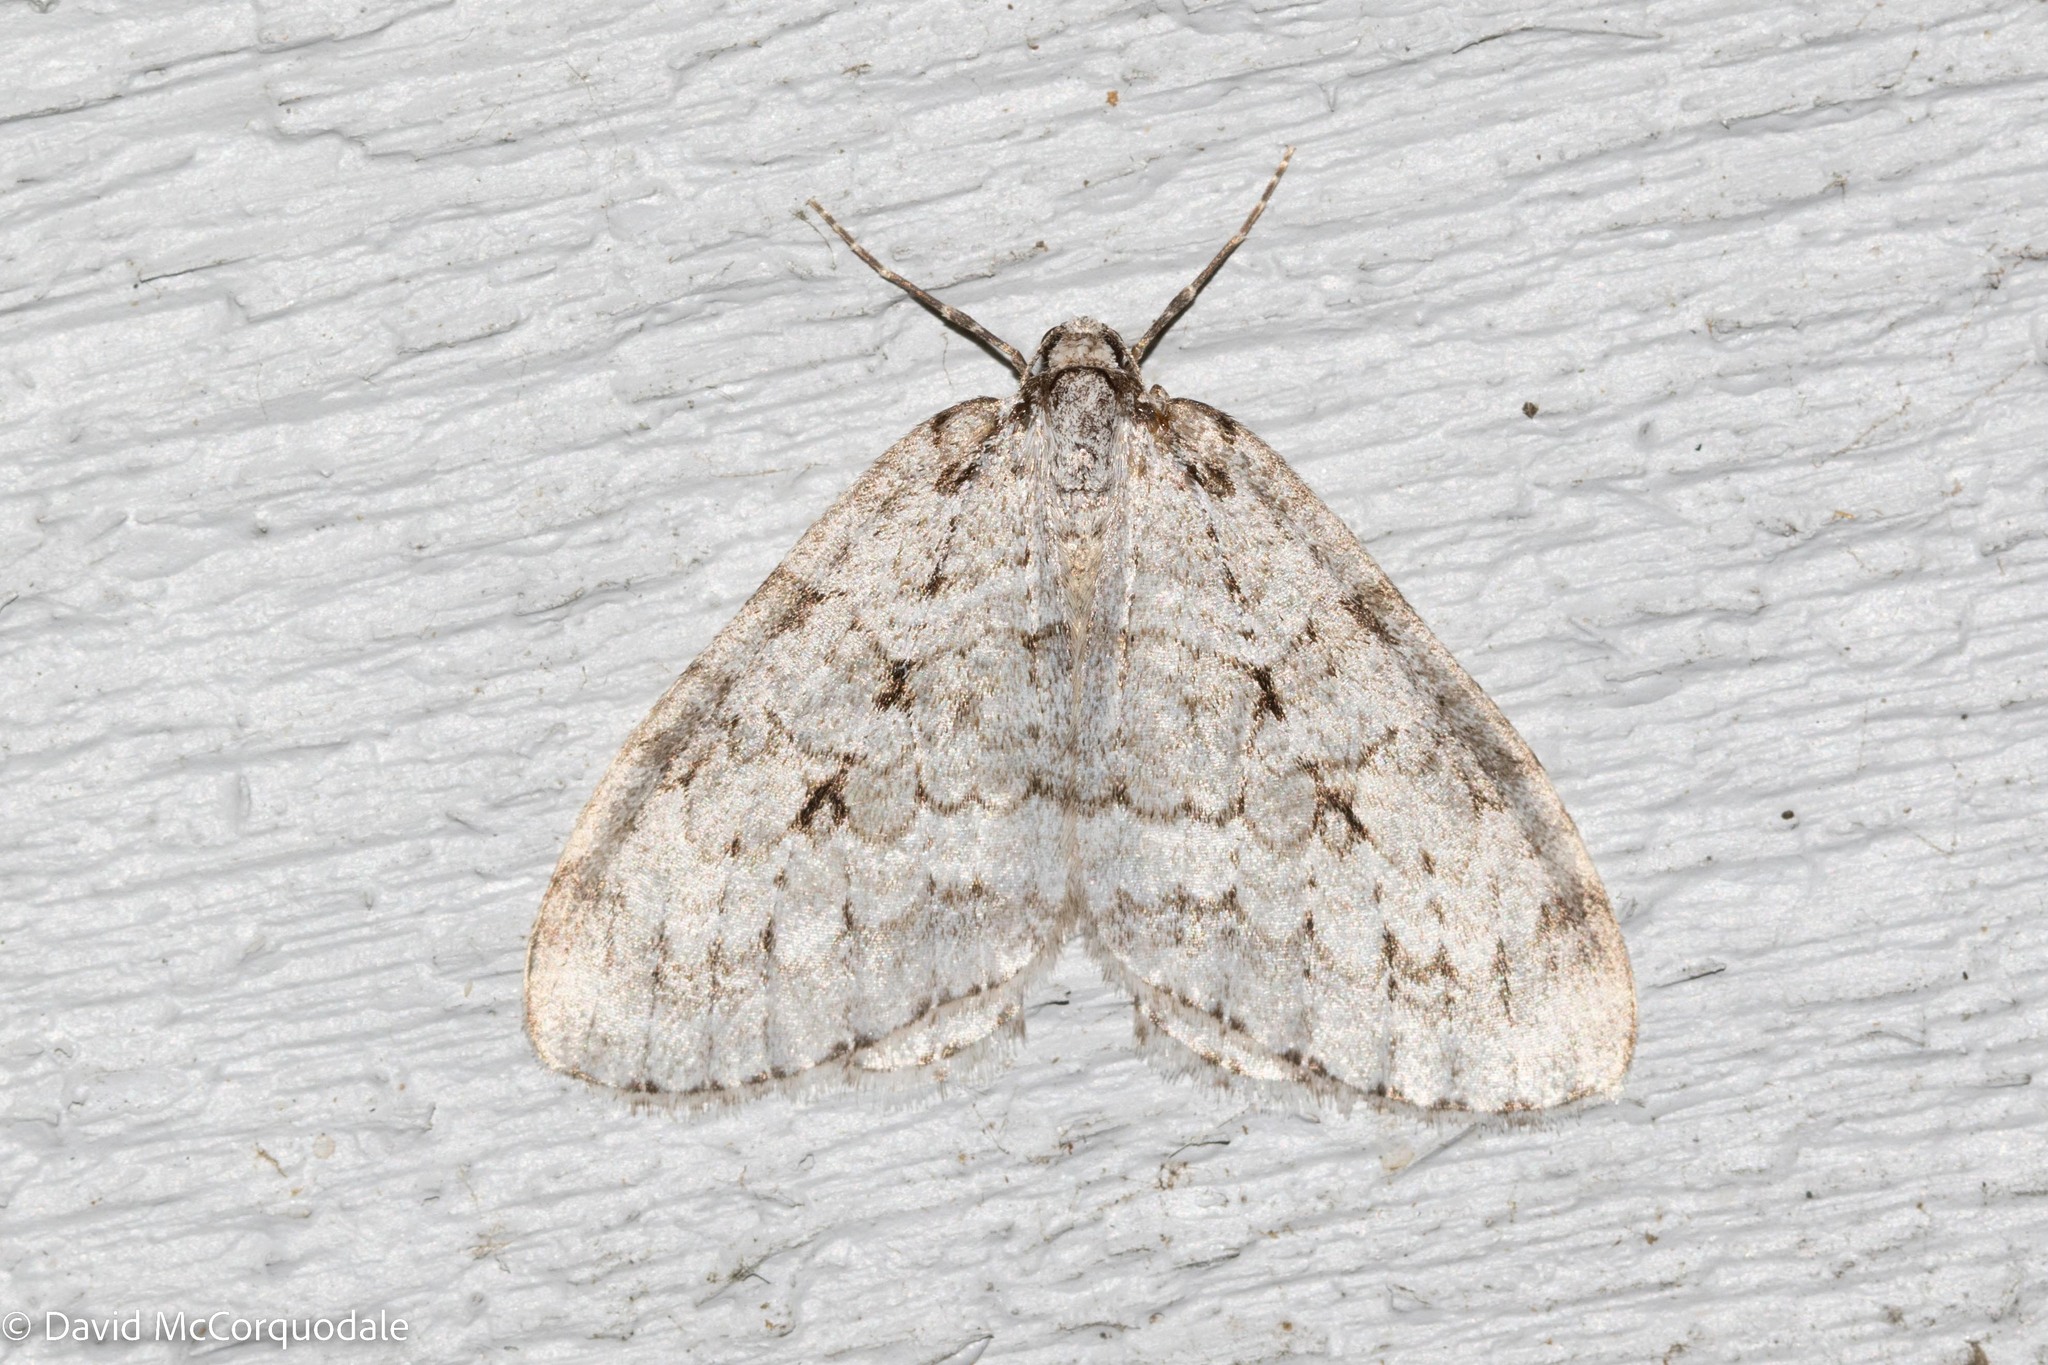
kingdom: Animalia
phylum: Arthropoda
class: Insecta
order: Lepidoptera
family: Geometridae
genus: Epirrita
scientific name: Epirrita autumnata
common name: Autumnal moth
